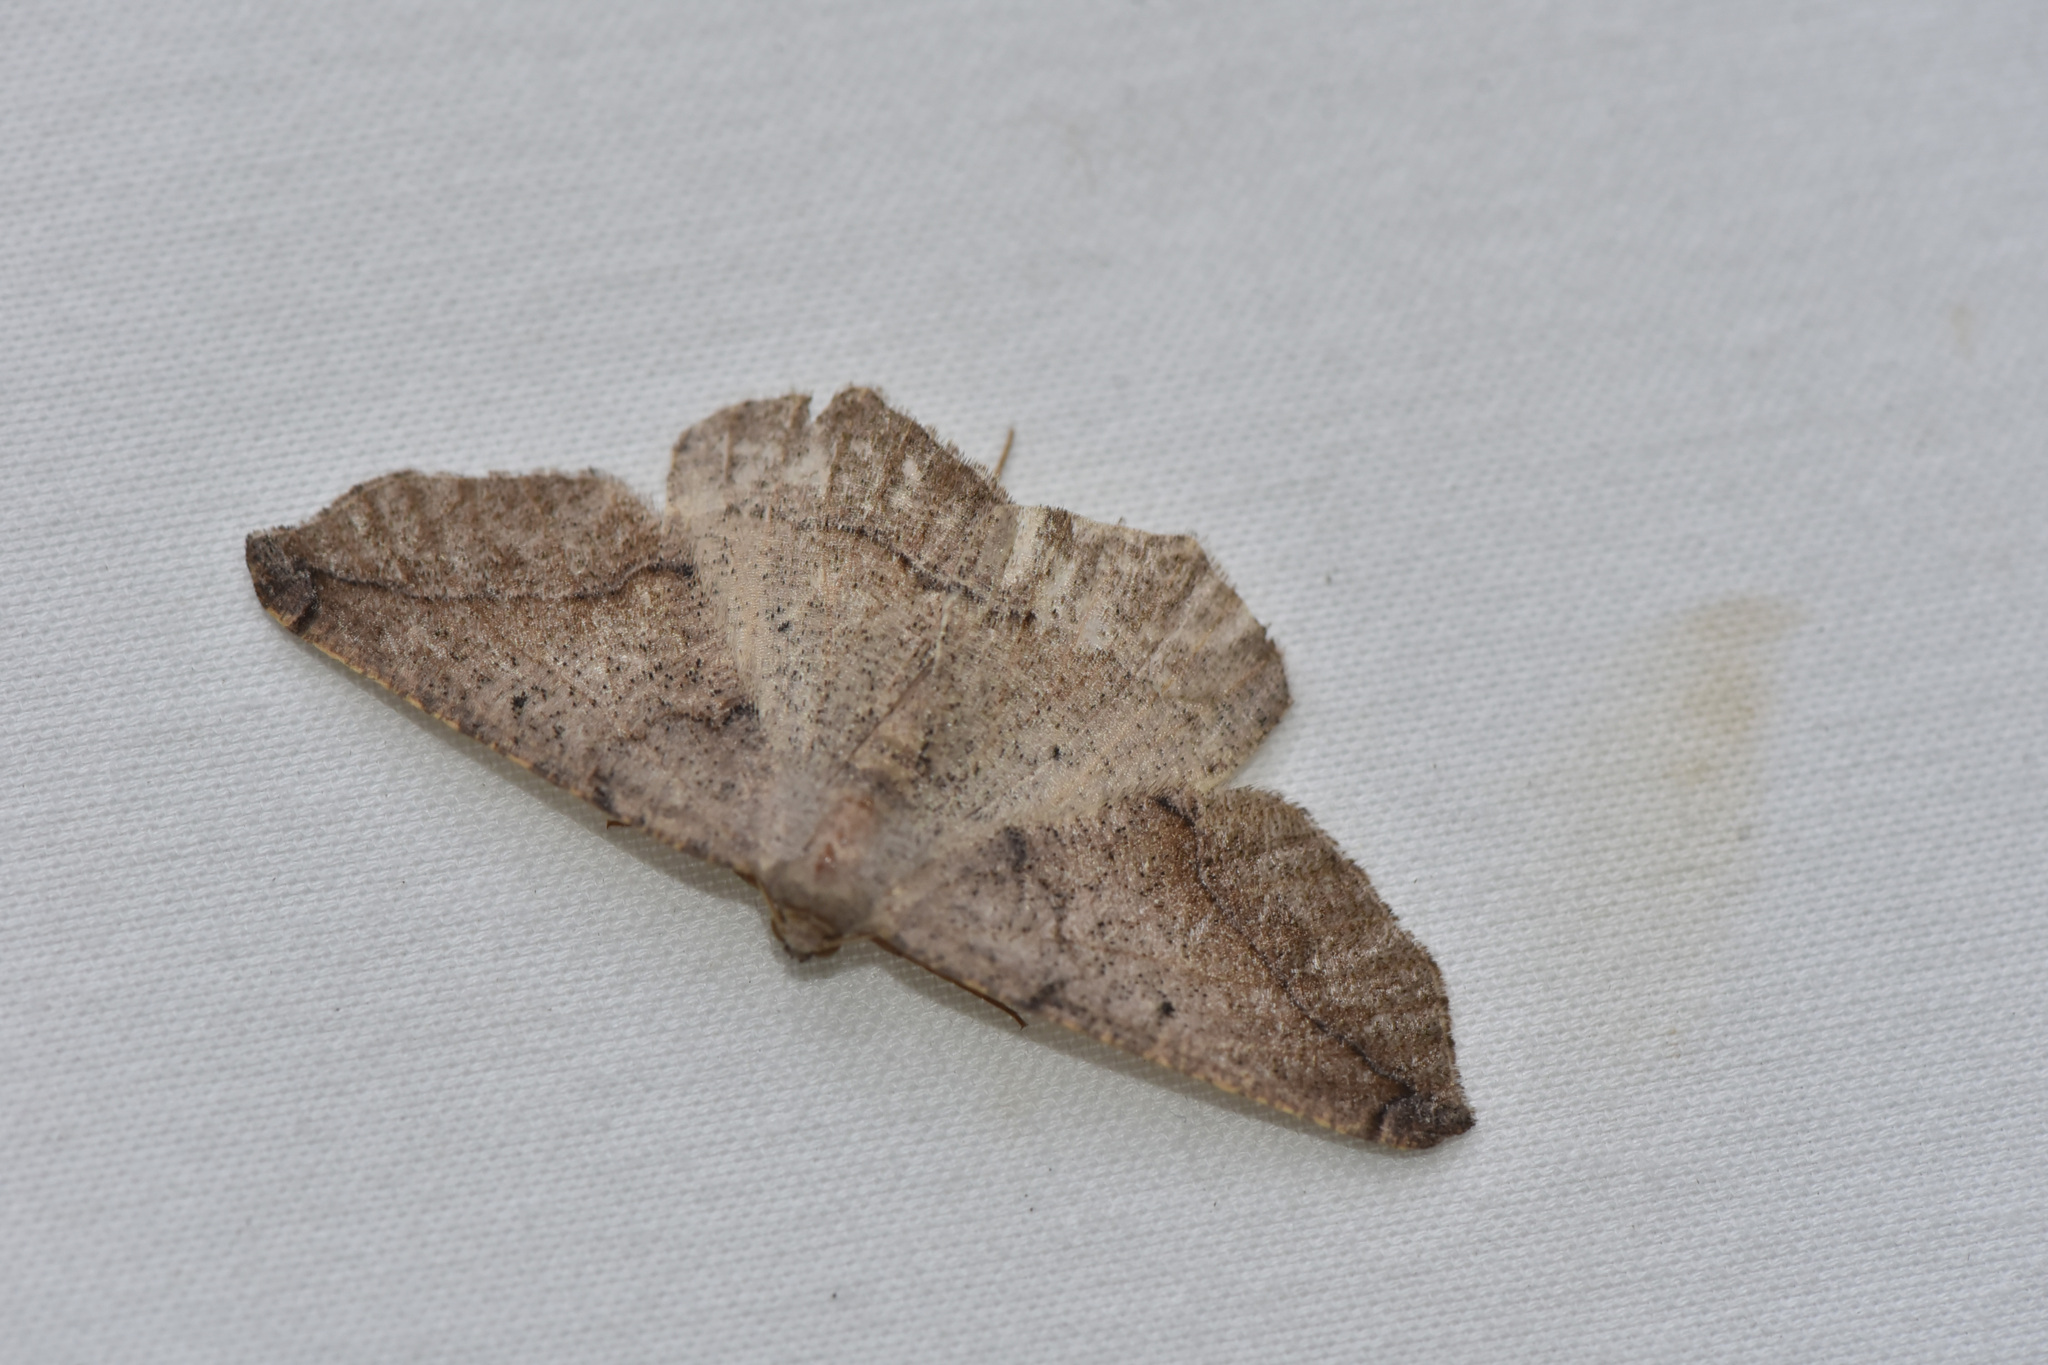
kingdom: Animalia
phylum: Arthropoda
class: Insecta
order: Lepidoptera
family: Geometridae
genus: Prochoerodes
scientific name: Prochoerodes forficaria
